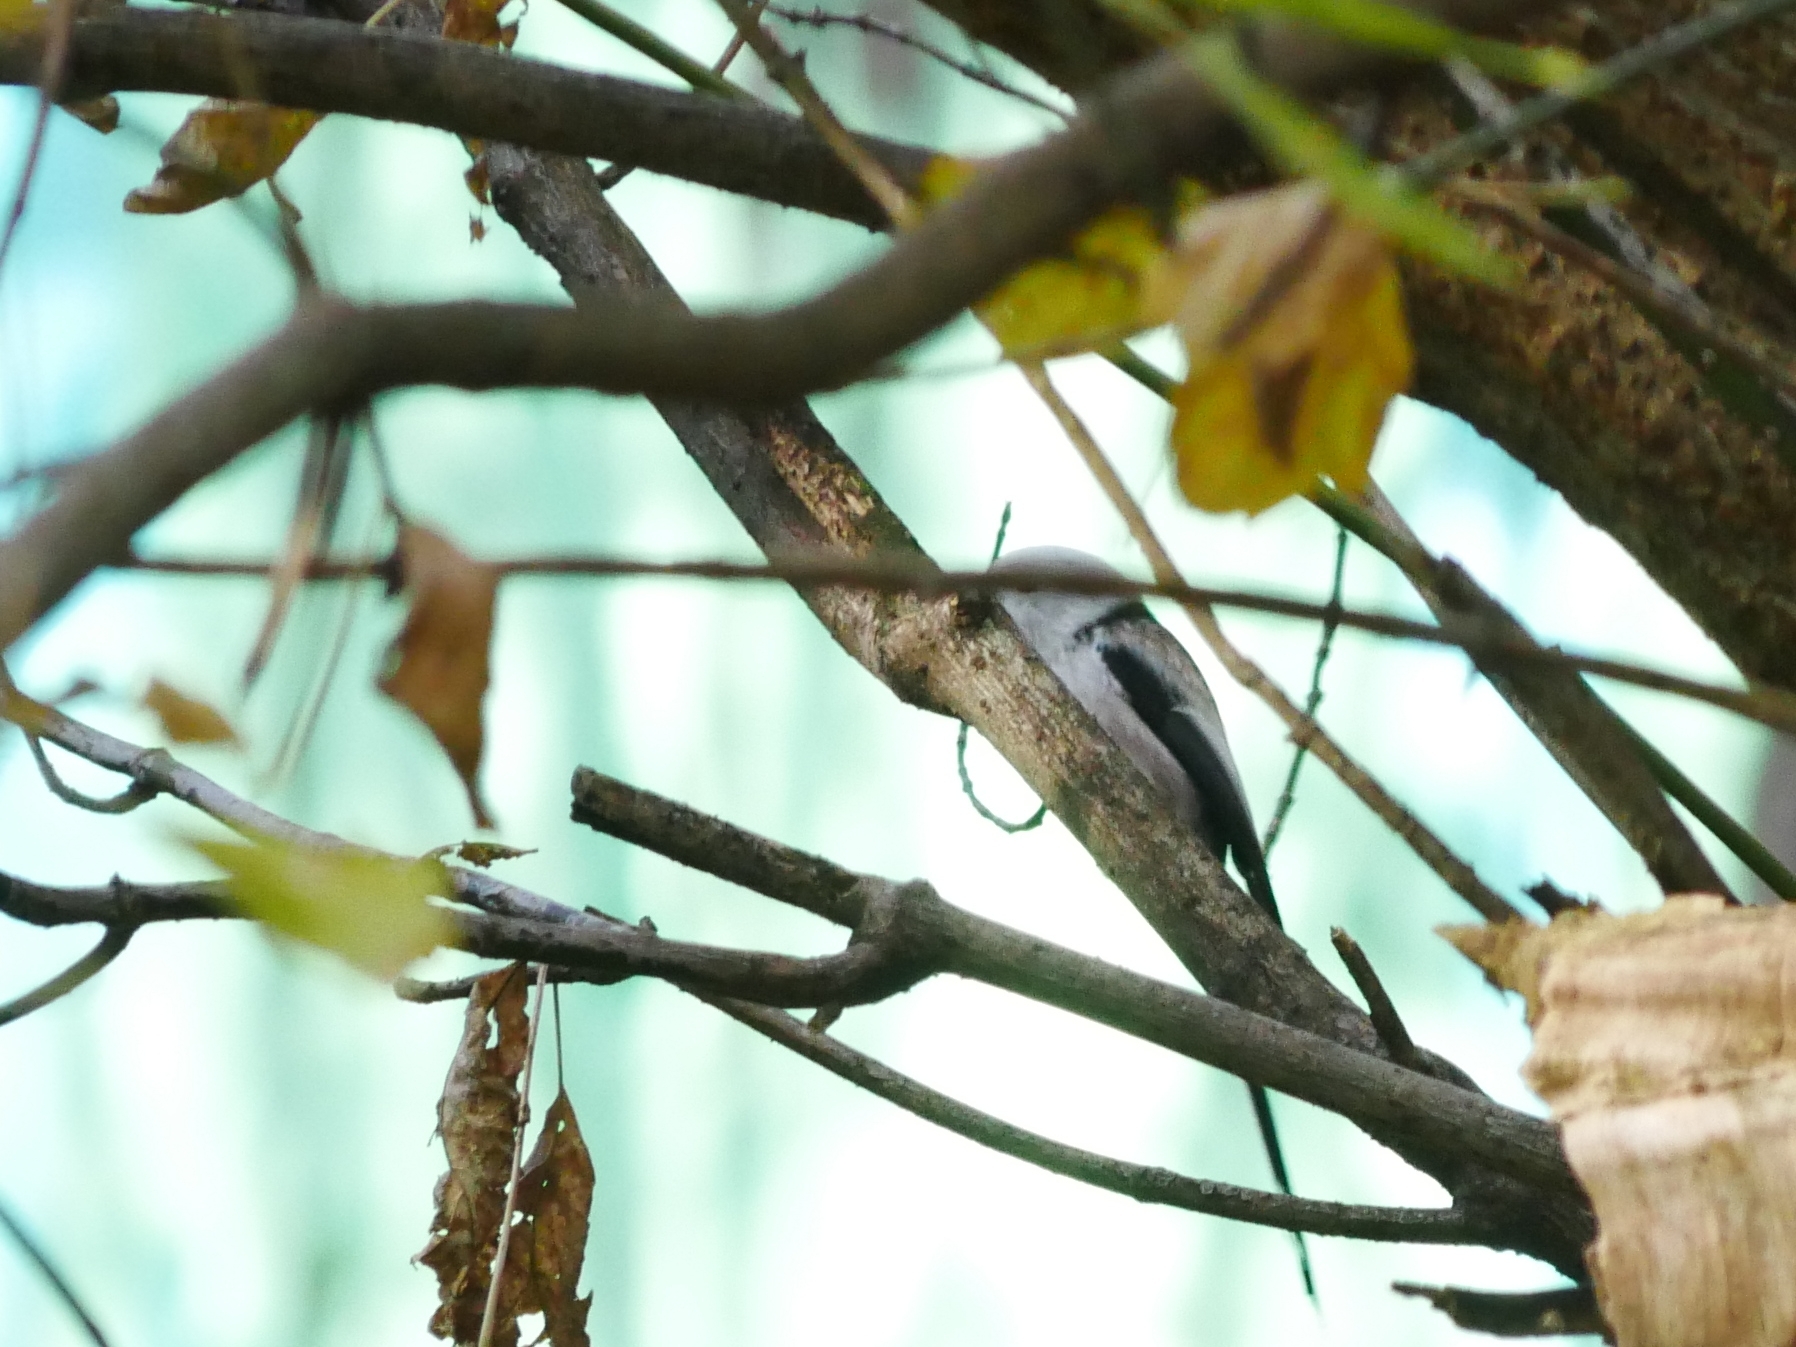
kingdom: Animalia
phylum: Chordata
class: Aves
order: Passeriformes
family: Aegithalidae
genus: Aegithalos
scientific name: Aegithalos caudatus
